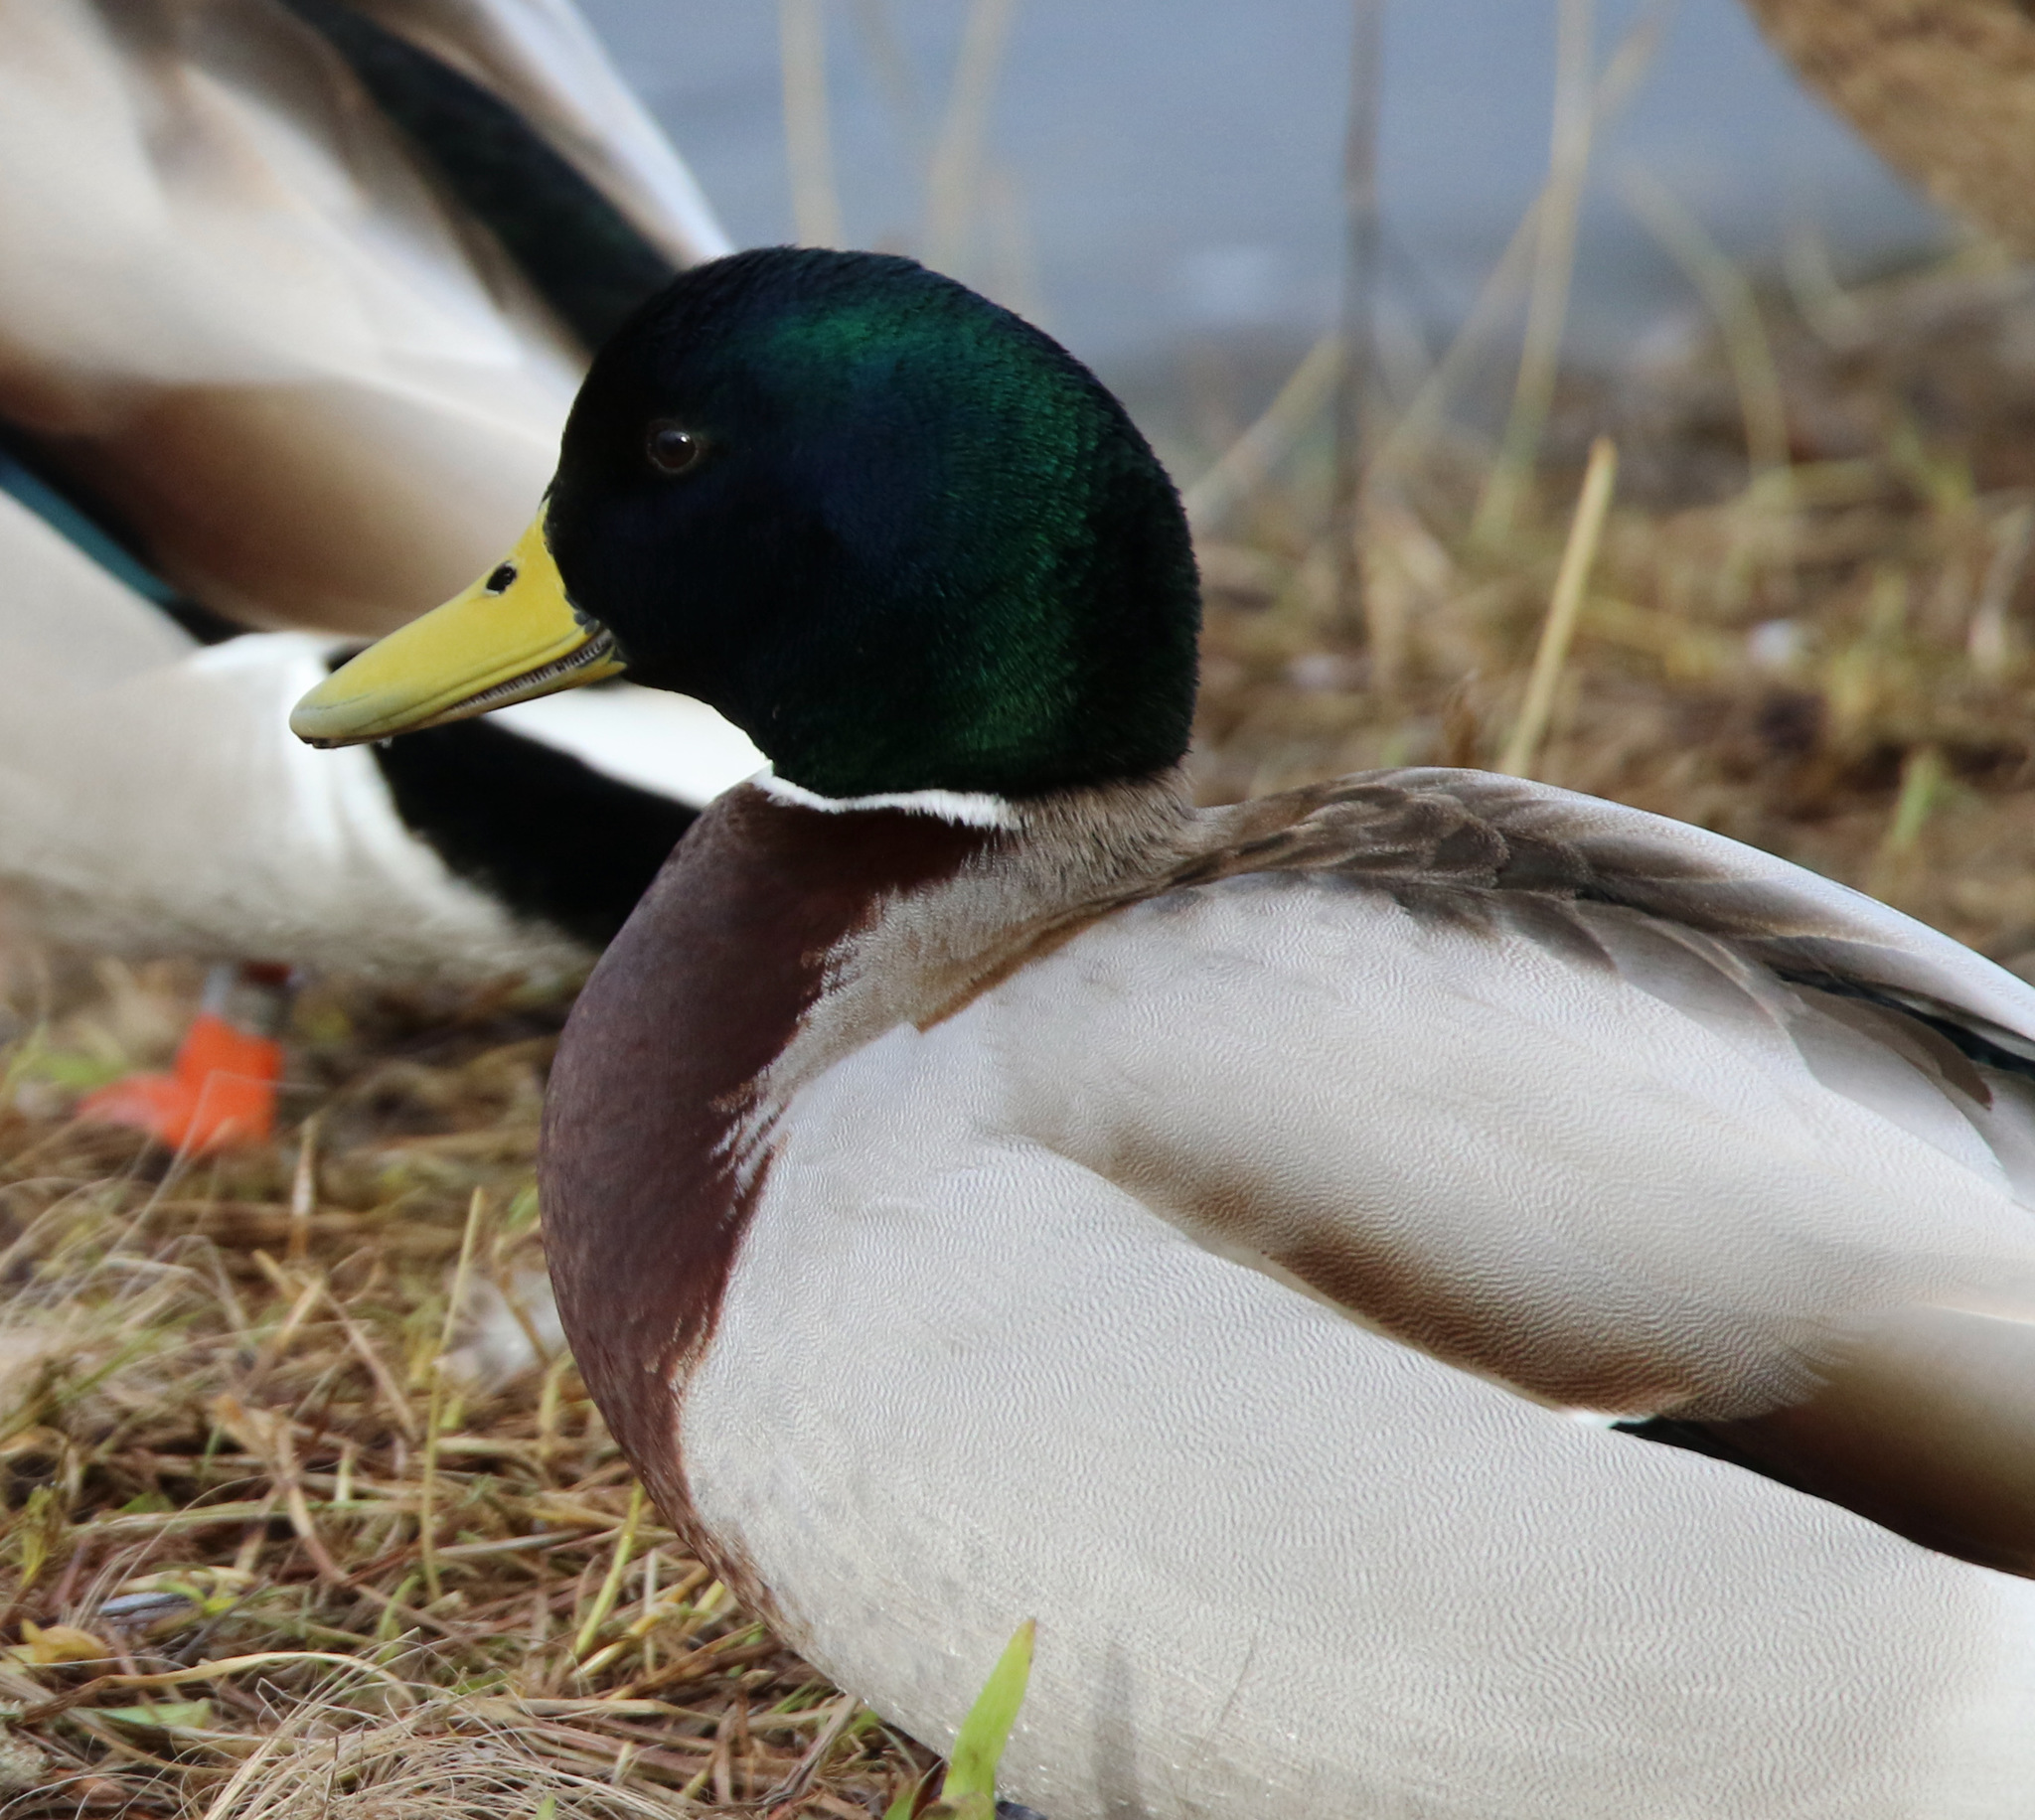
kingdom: Animalia
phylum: Chordata
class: Aves
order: Anseriformes
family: Anatidae
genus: Anas
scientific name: Anas platyrhynchos
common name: Mallard
